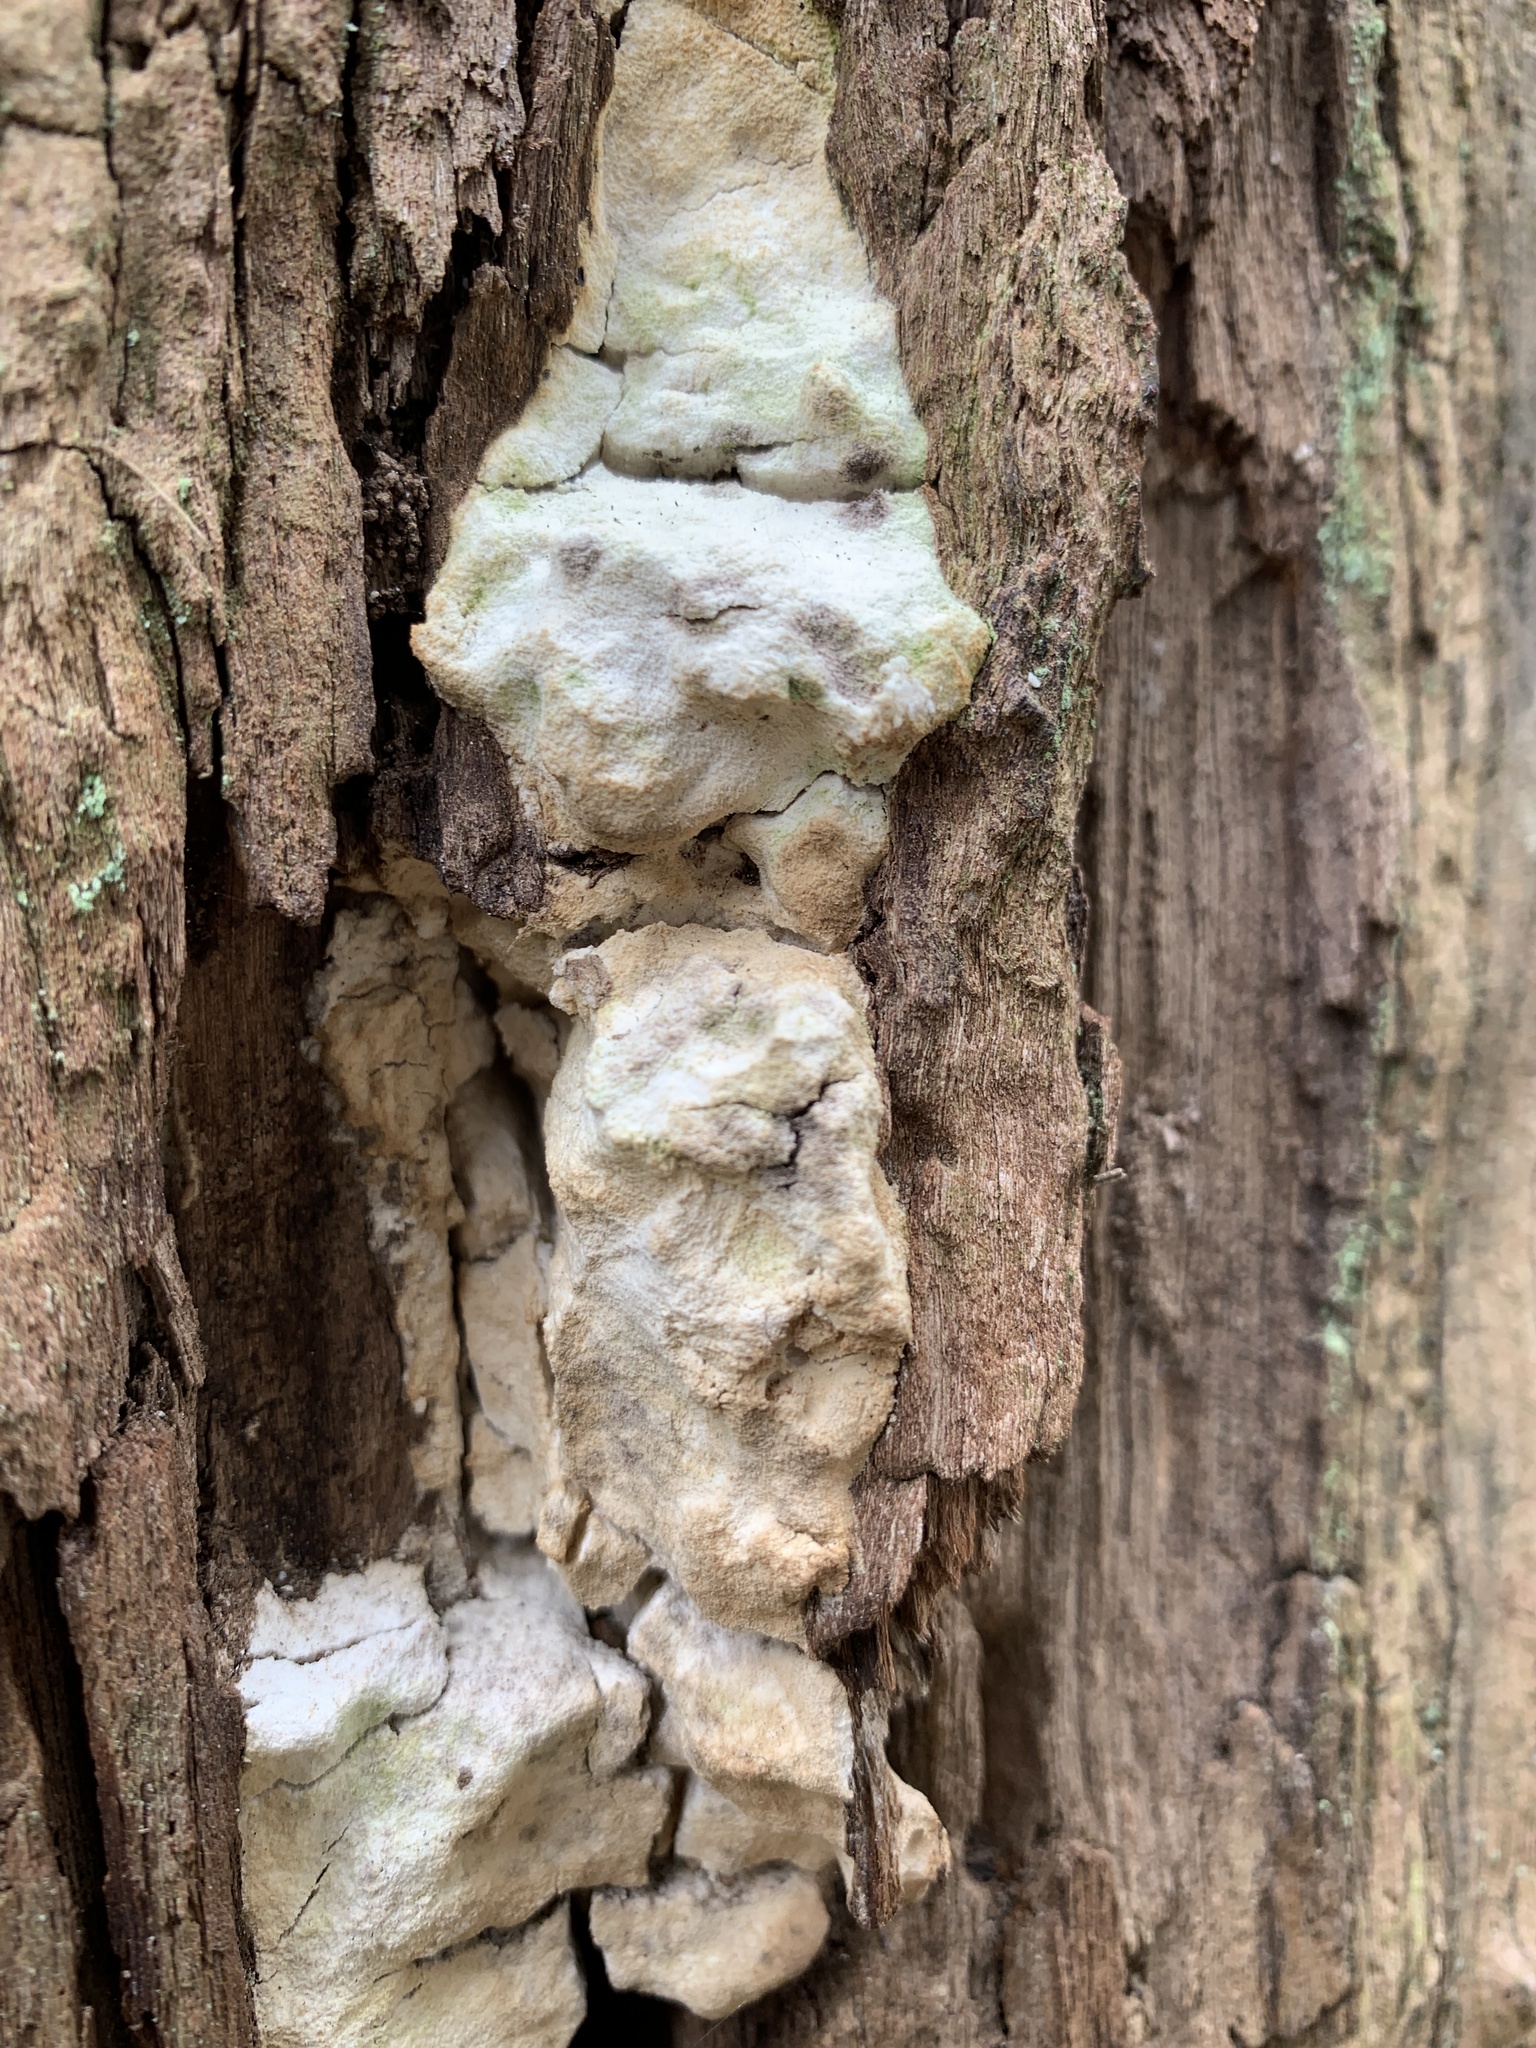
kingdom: Fungi
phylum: Basidiomycota
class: Agaricomycetes
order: Polyporales
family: Laetiporaceae
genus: Laetiporus
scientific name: Laetiporus gilbertsonii
